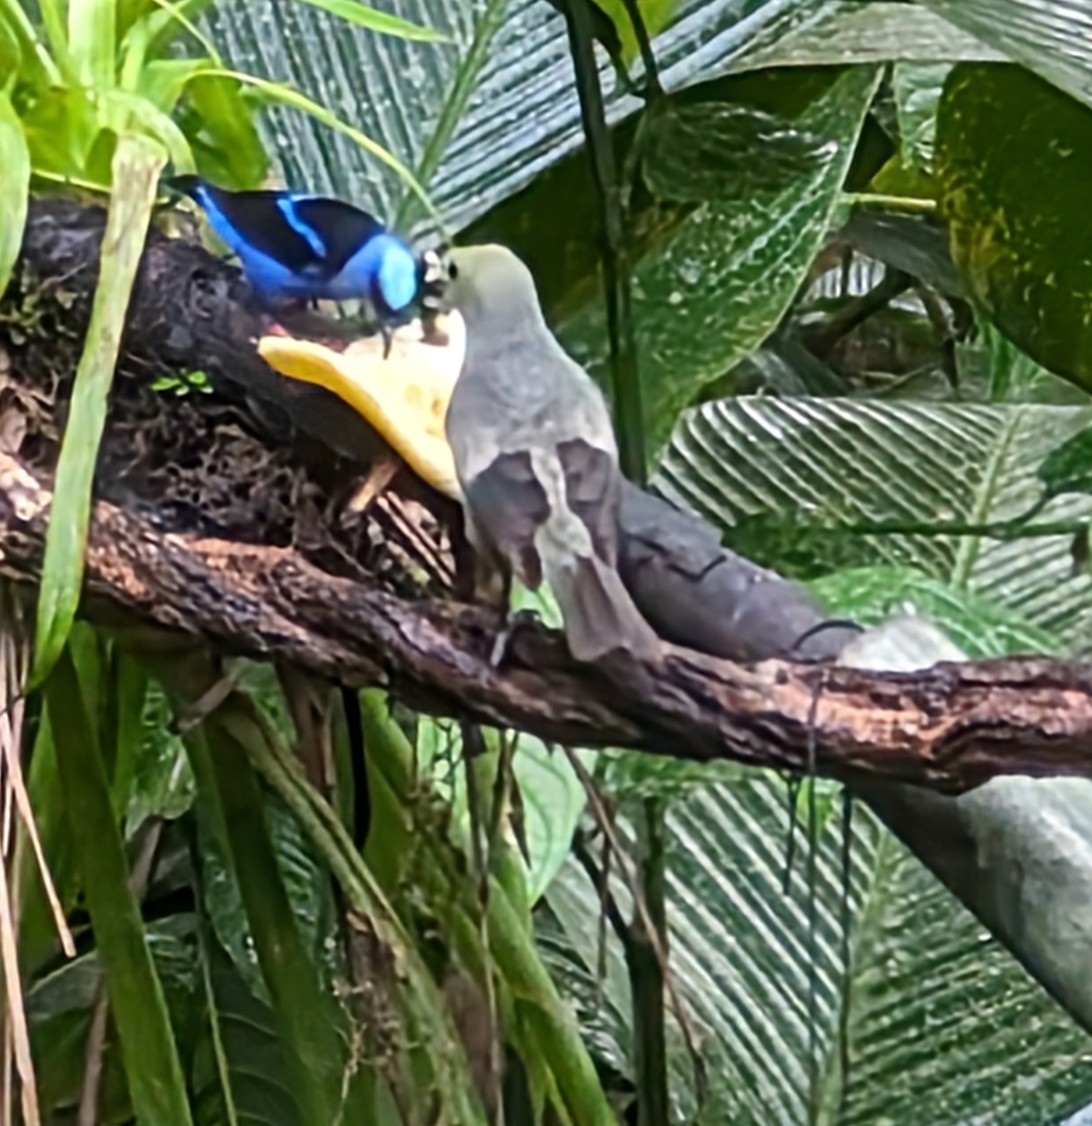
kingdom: Animalia
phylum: Chordata
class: Aves
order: Passeriformes
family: Thraupidae
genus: Thraupis
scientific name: Thraupis palmarum
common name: Palm tanager
